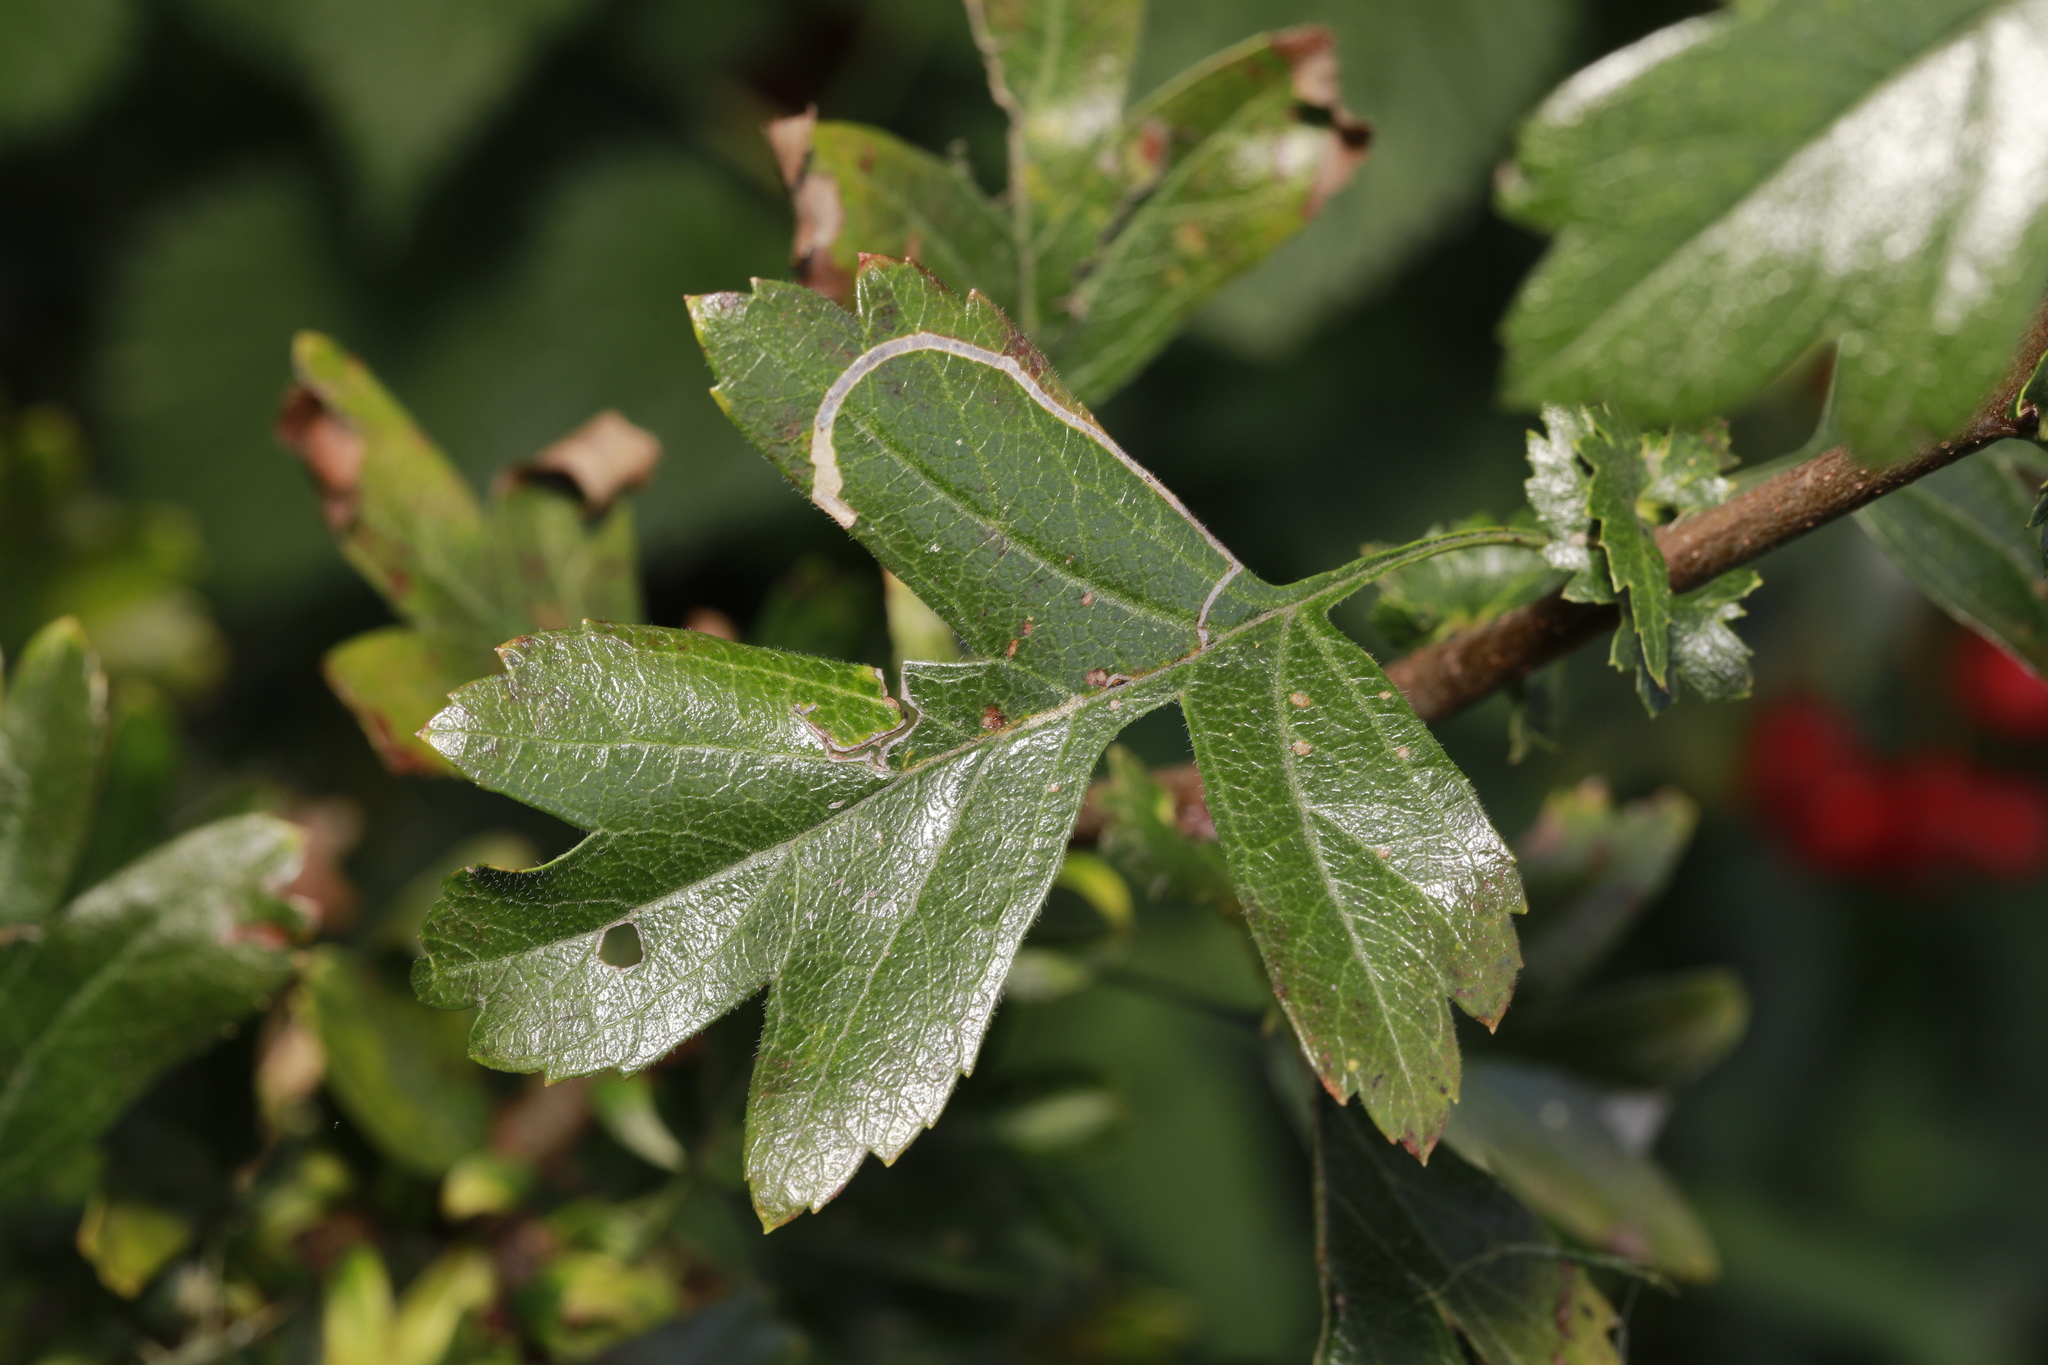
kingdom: Animalia
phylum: Arthropoda
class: Insecta
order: Lepidoptera
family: Lyonetiidae
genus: Lyonetia
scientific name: Lyonetia clerkella
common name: Apple leaf miner
